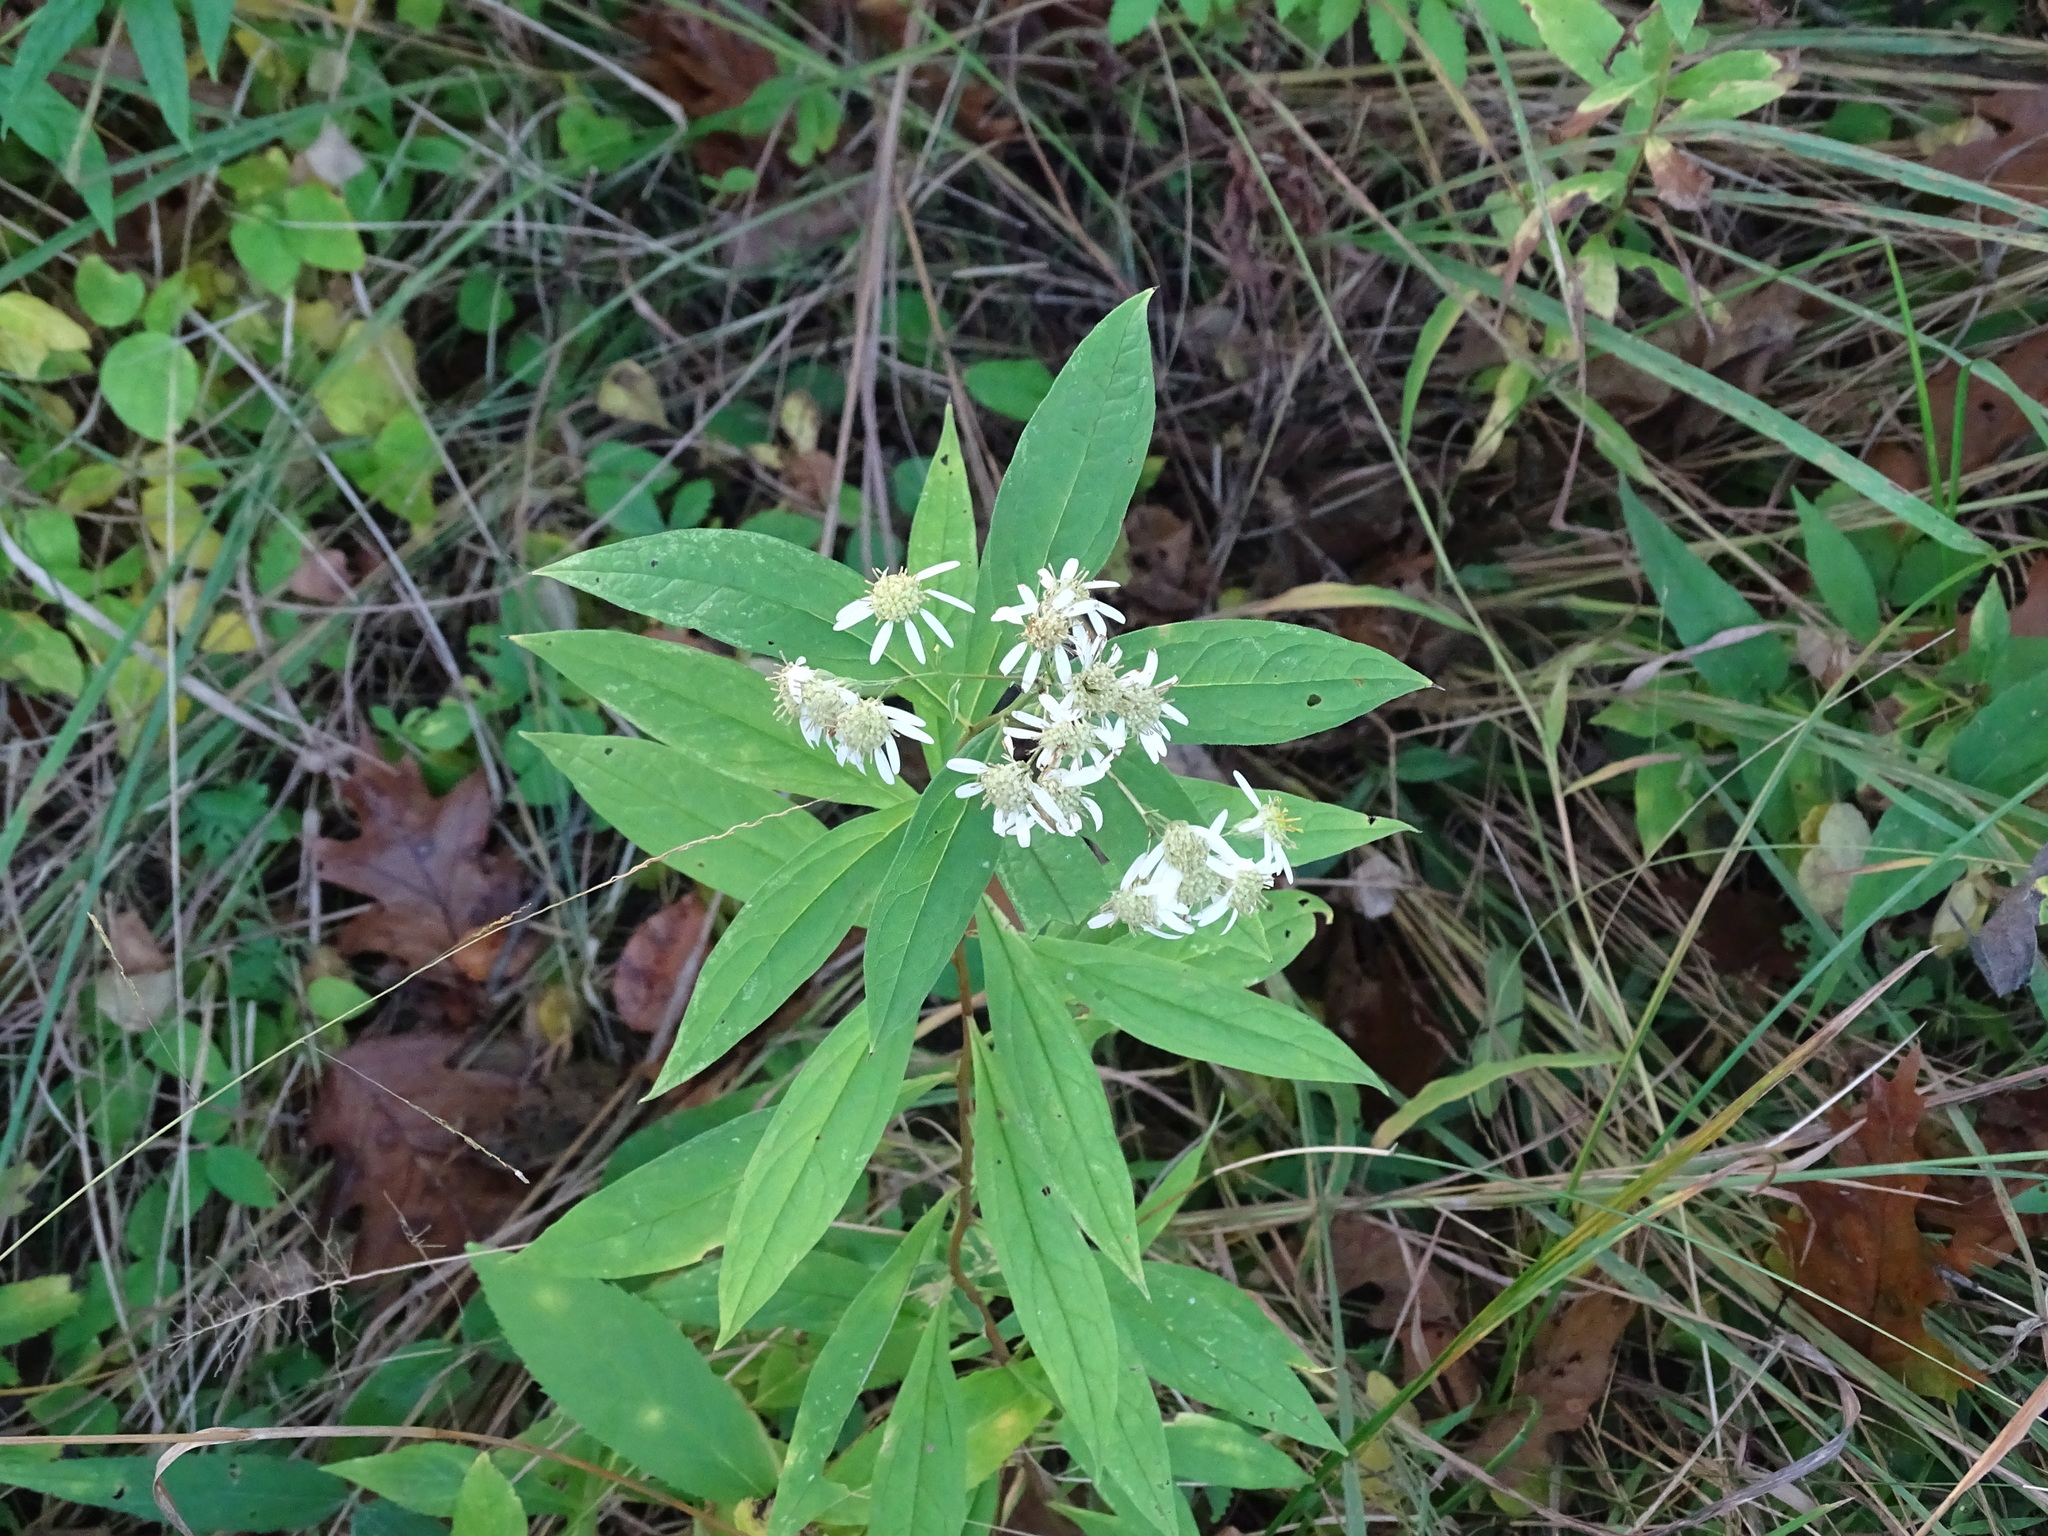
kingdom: Plantae
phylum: Tracheophyta
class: Magnoliopsida
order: Asterales
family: Asteraceae
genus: Doellingeria
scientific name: Doellingeria umbellata
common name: Flat-top white aster
